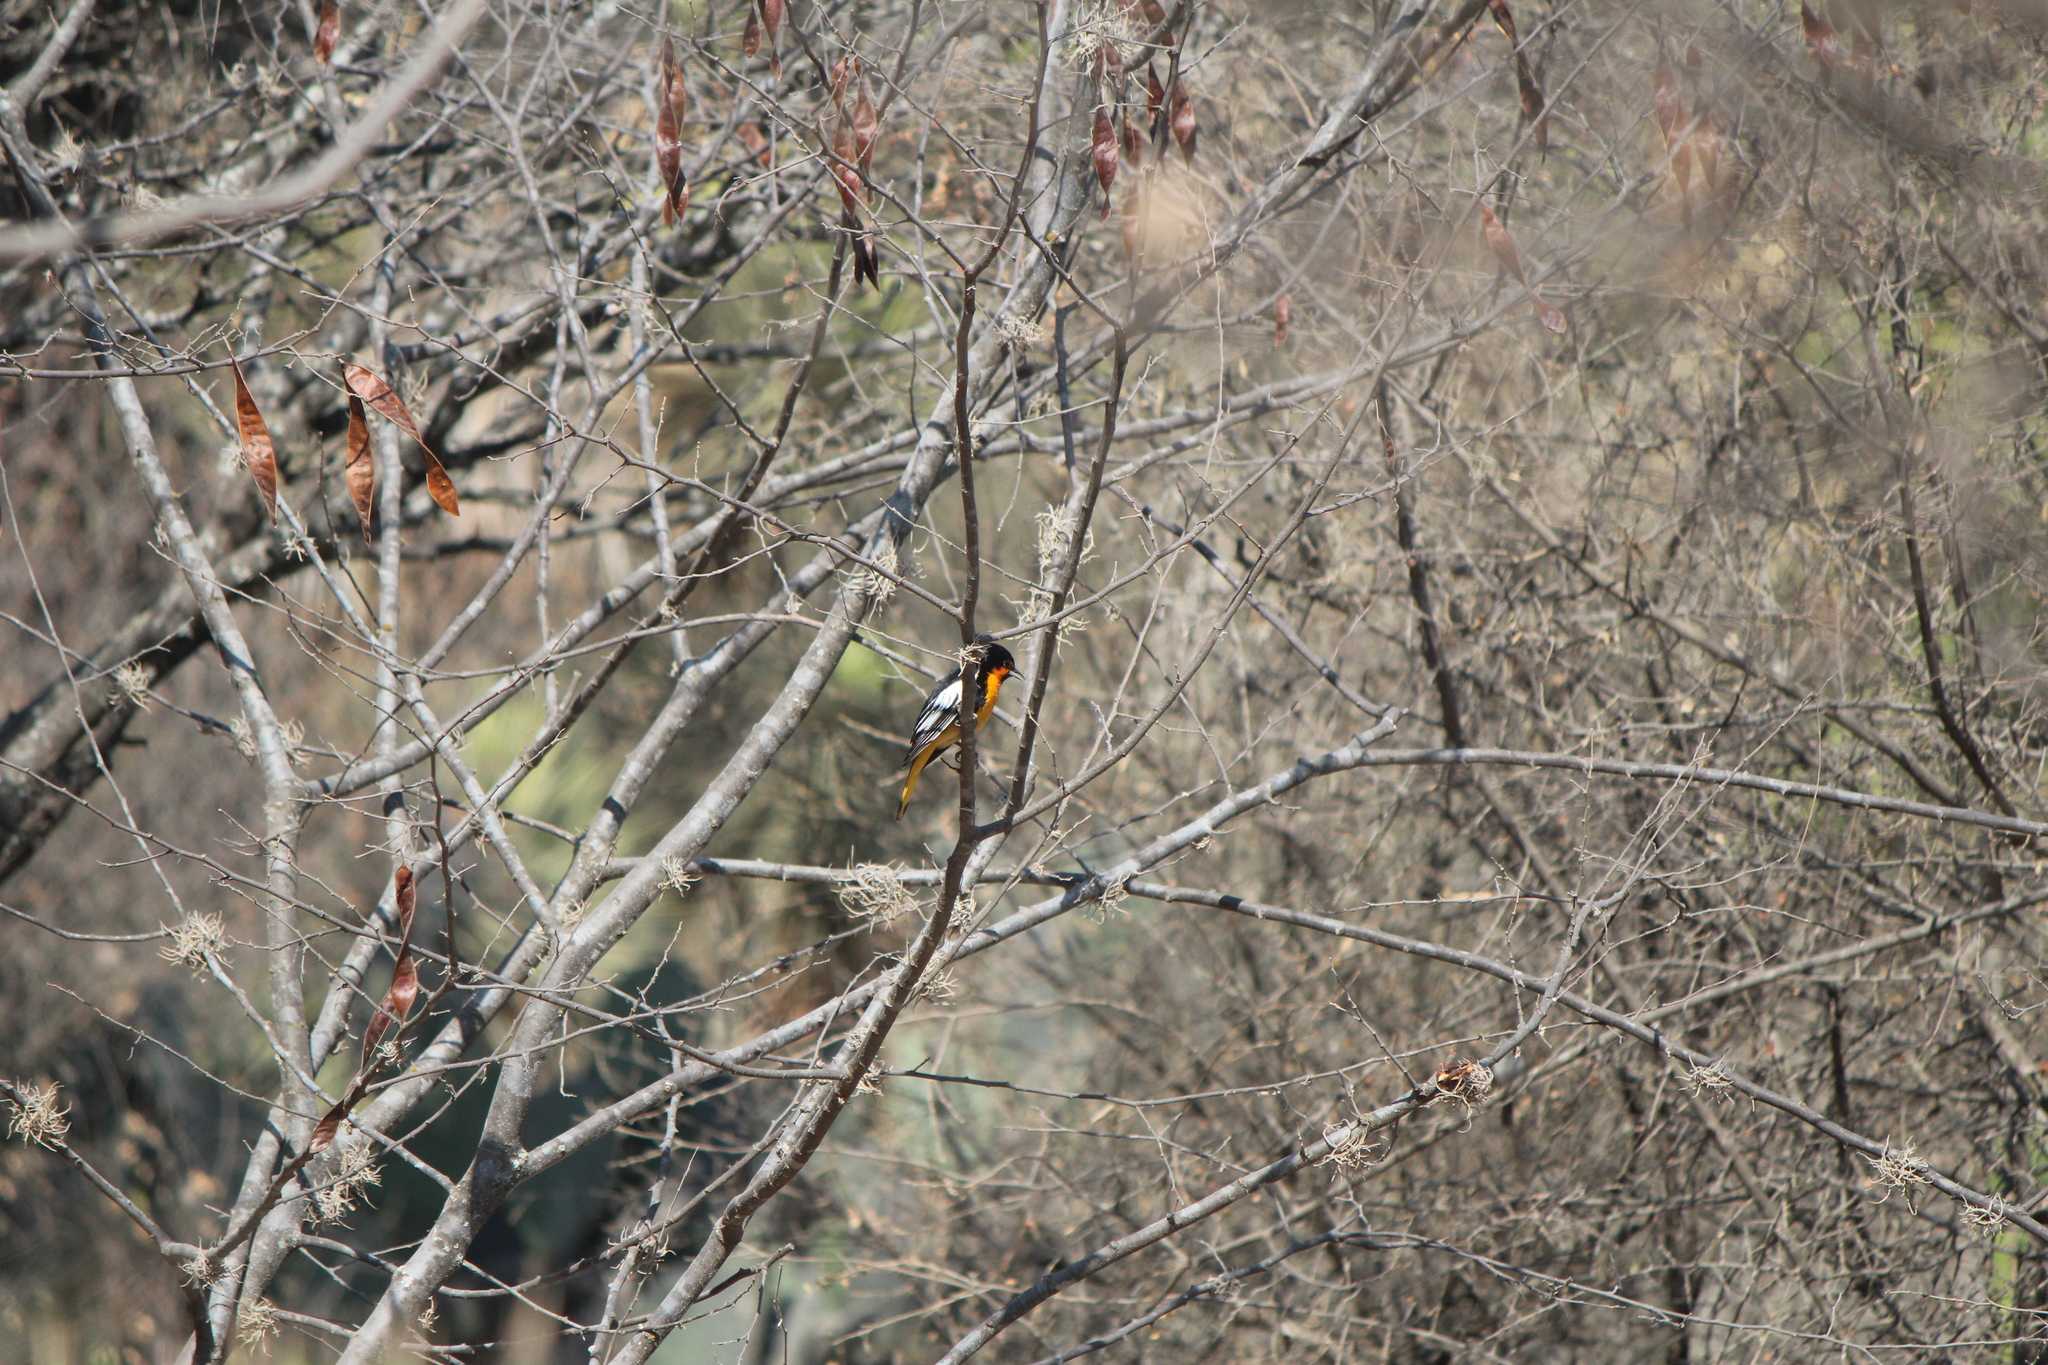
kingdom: Animalia
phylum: Chordata
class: Aves
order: Passeriformes
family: Icteridae
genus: Icterus
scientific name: Icterus abeillei
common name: Black-backed oriole
